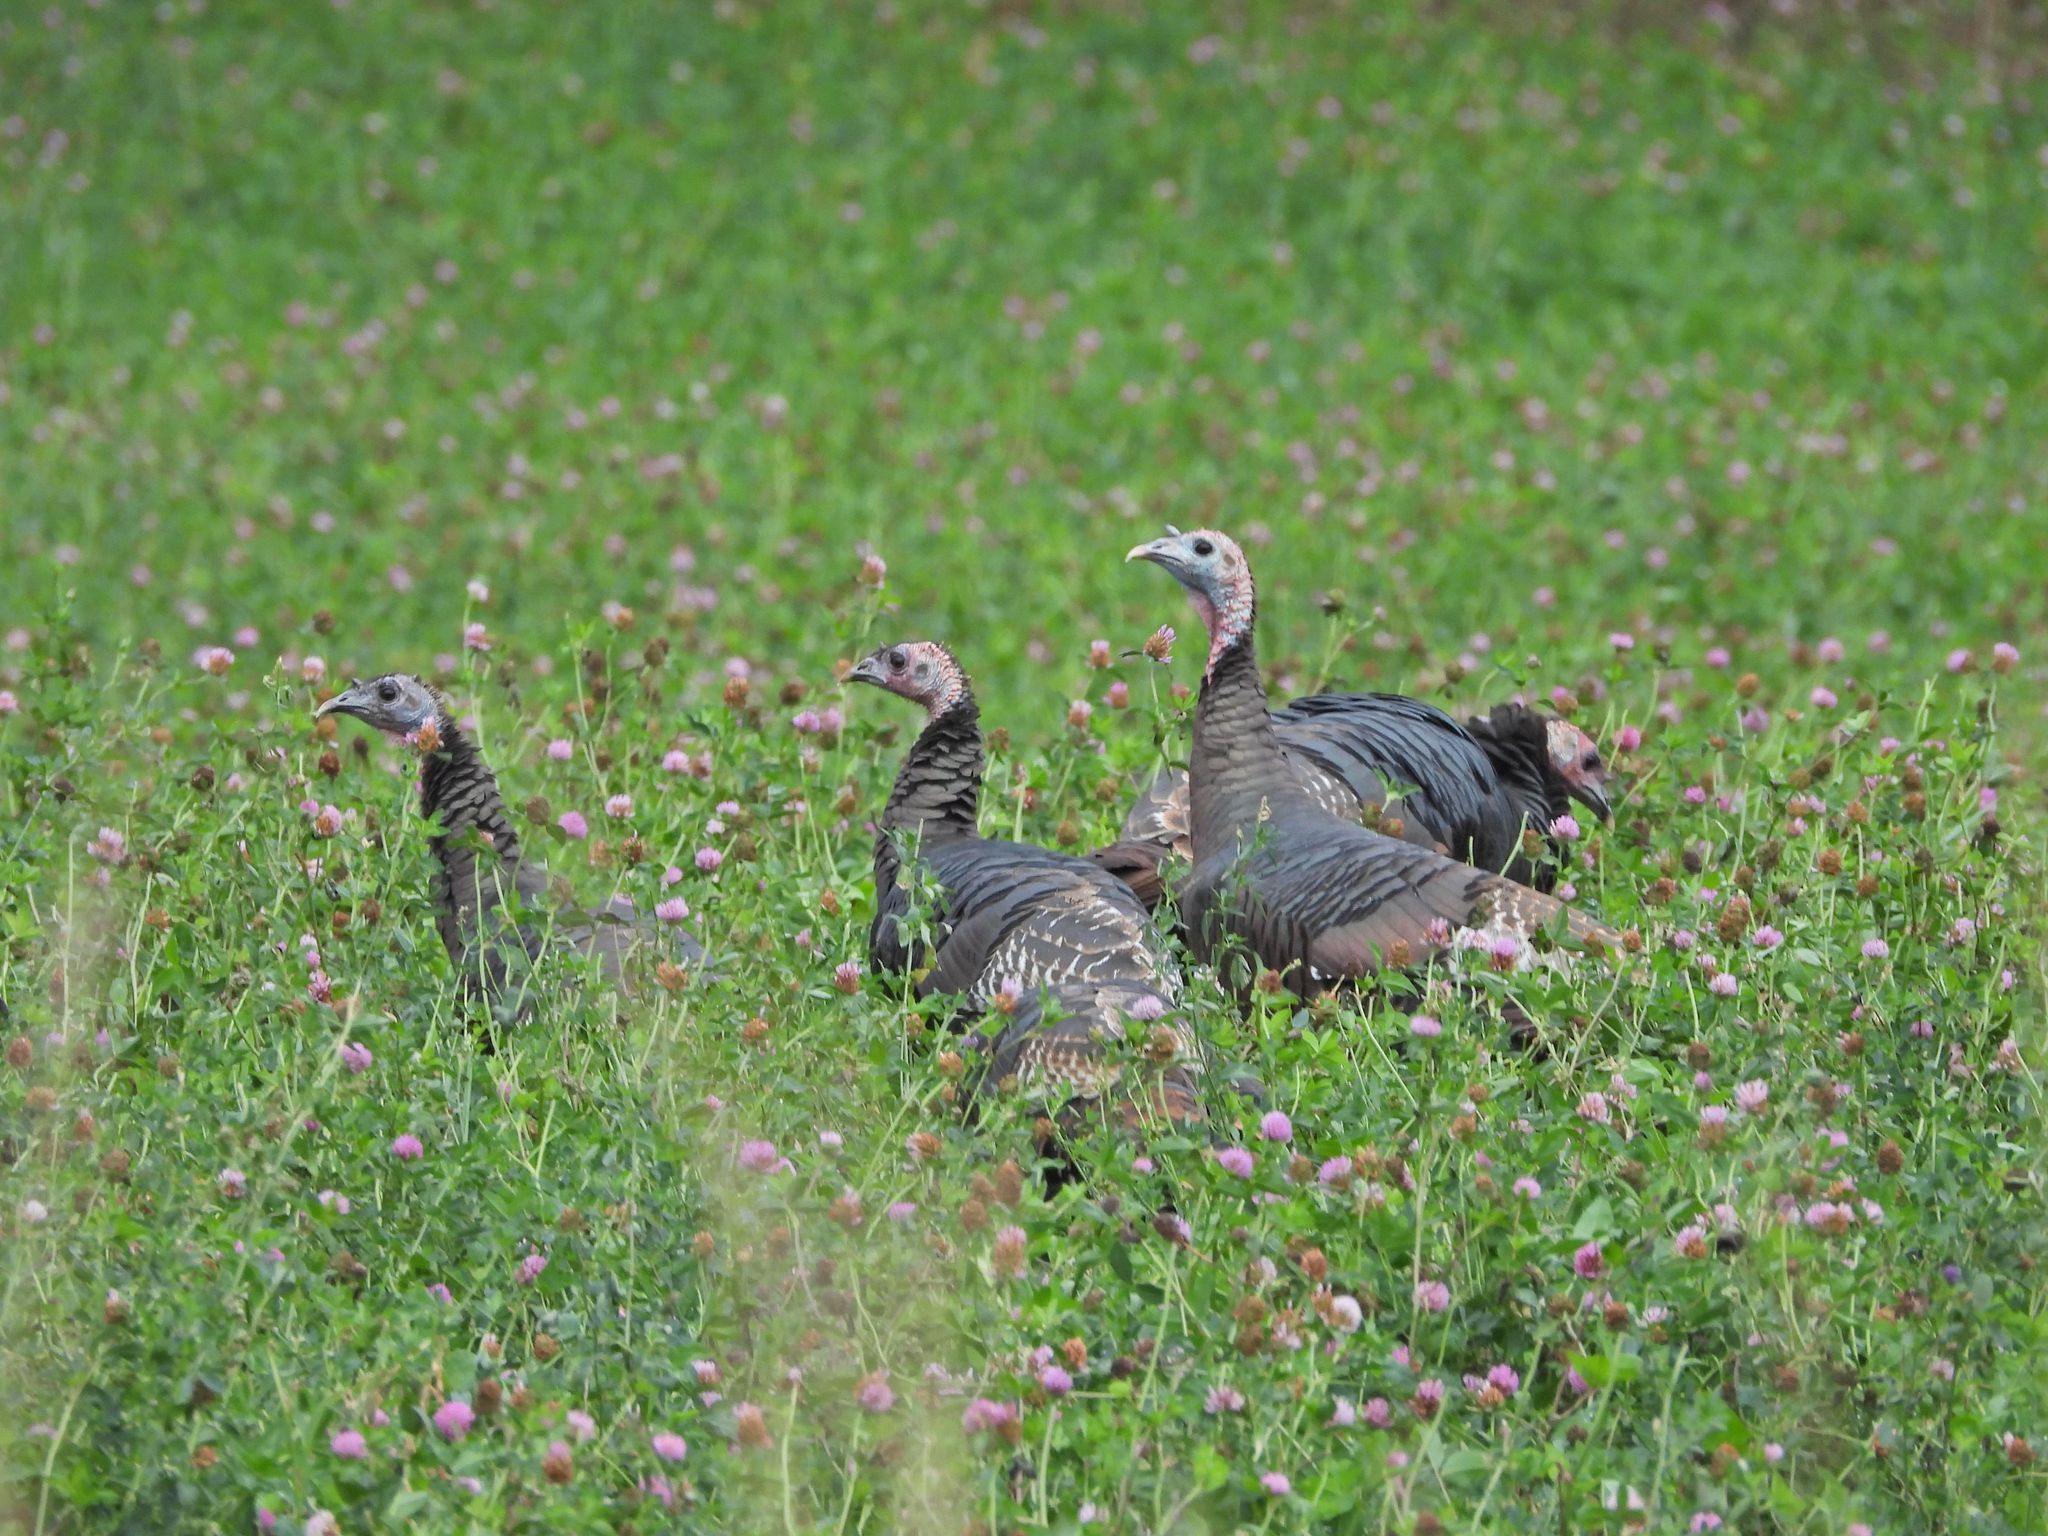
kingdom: Animalia
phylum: Chordata
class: Aves
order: Galliformes
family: Phasianidae
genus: Meleagris
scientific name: Meleagris gallopavo
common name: Wild turkey
